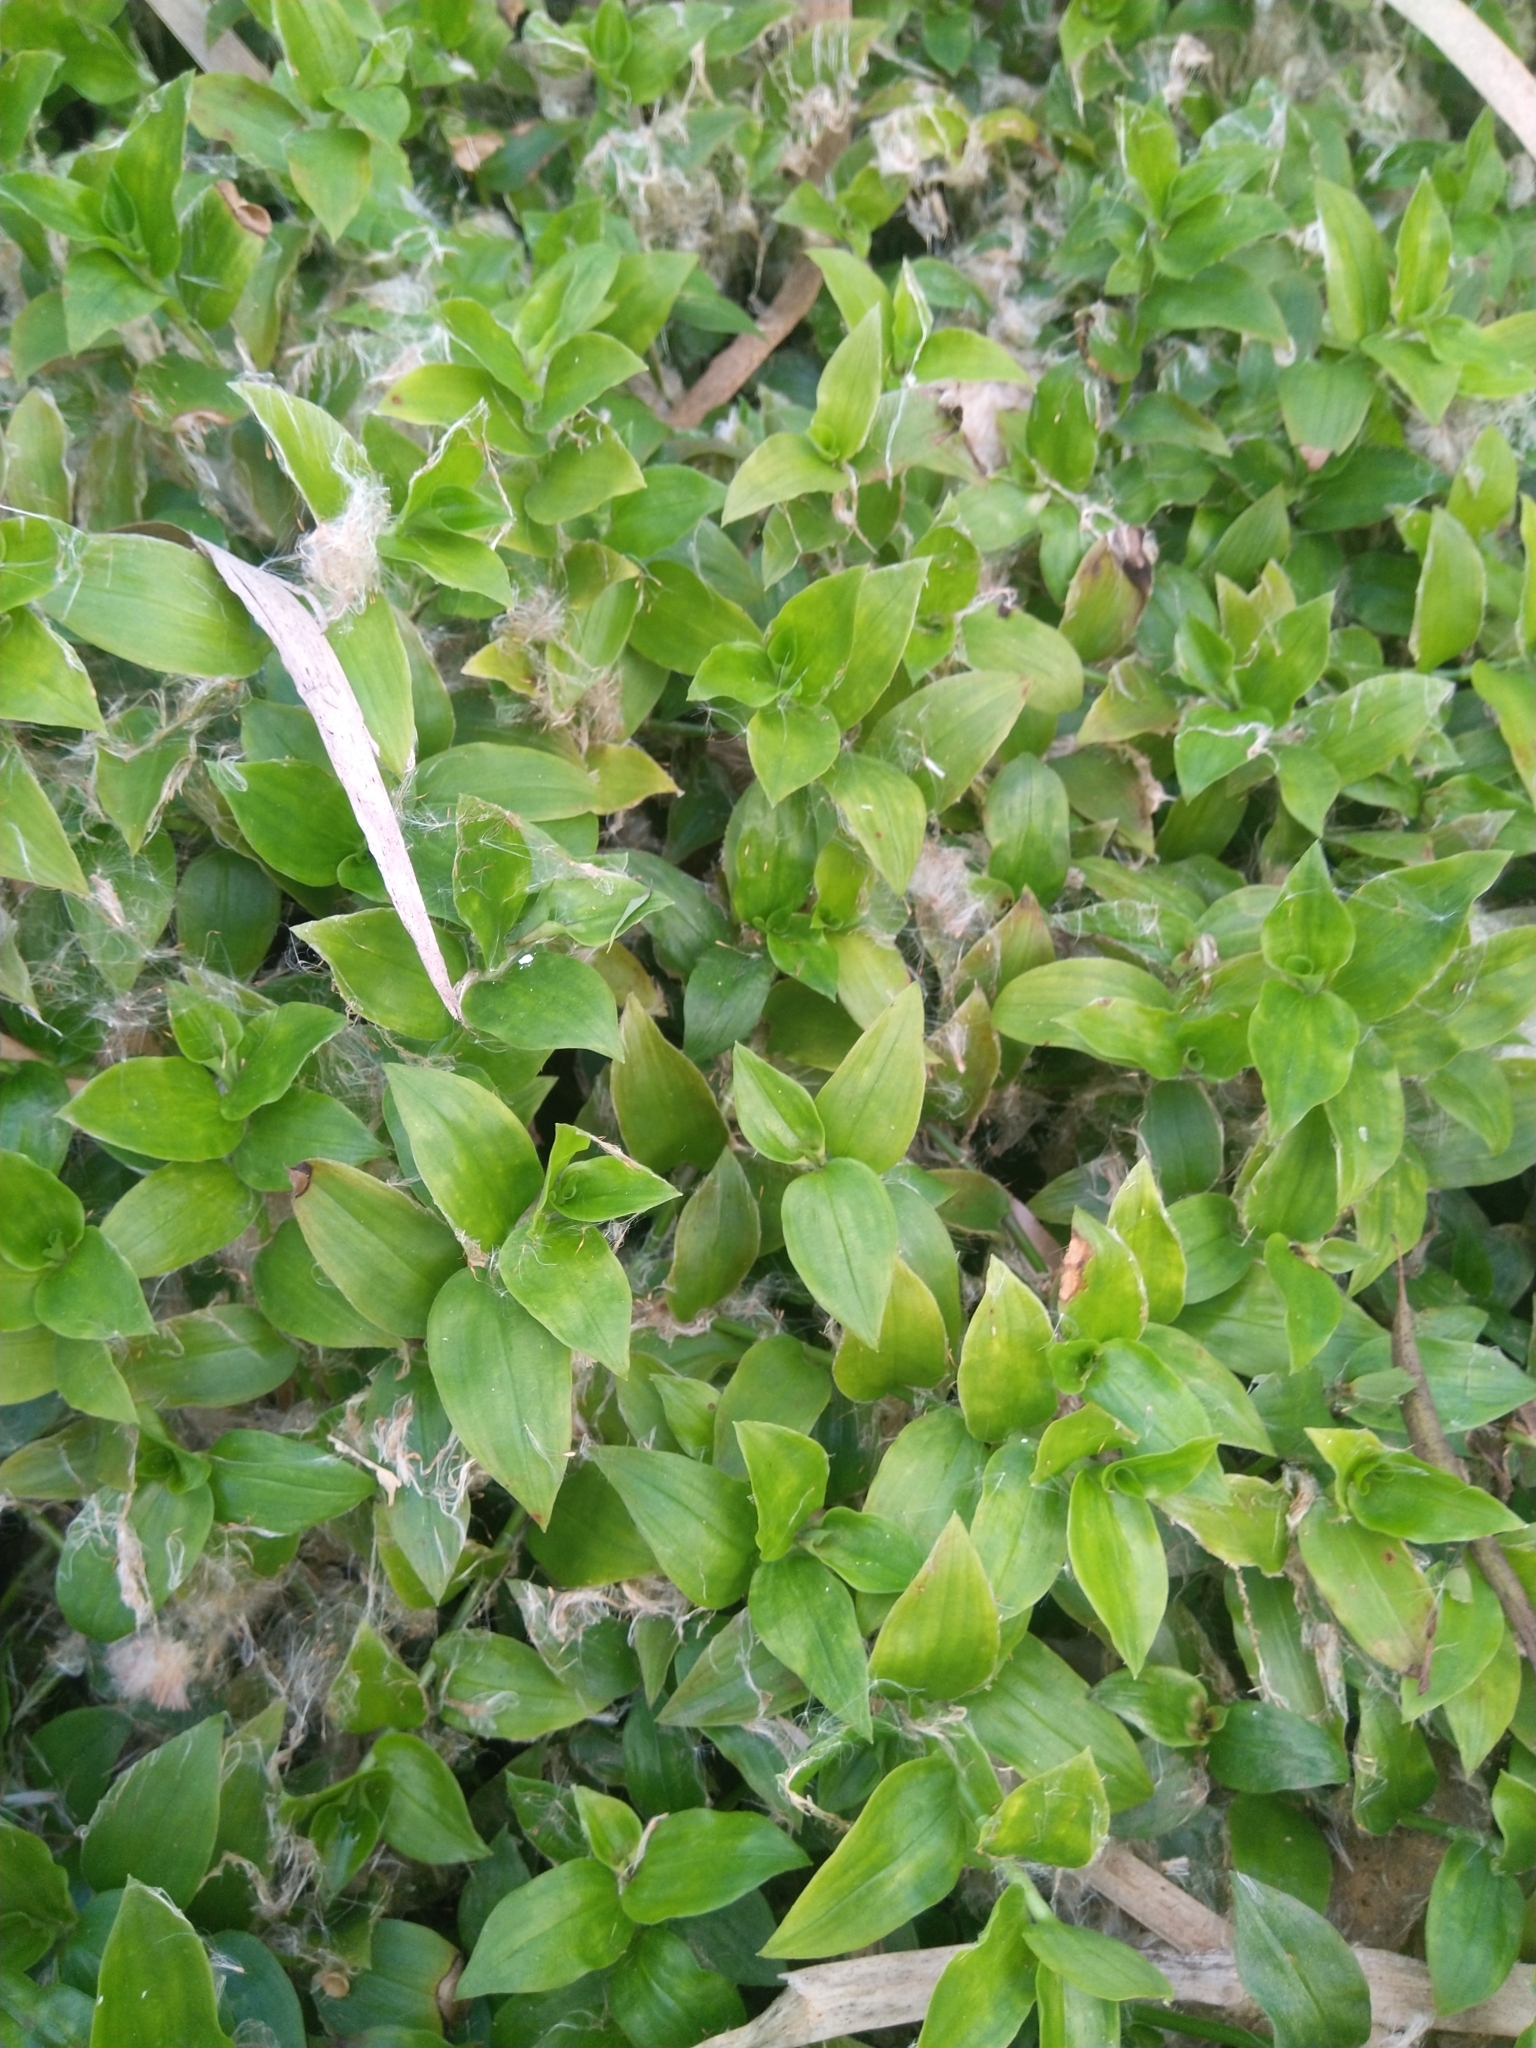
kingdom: Plantae
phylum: Tracheophyta
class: Liliopsida
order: Commelinales
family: Commelinaceae
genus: Tradescantia
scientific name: Tradescantia fluminensis
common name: Wandering-jew
